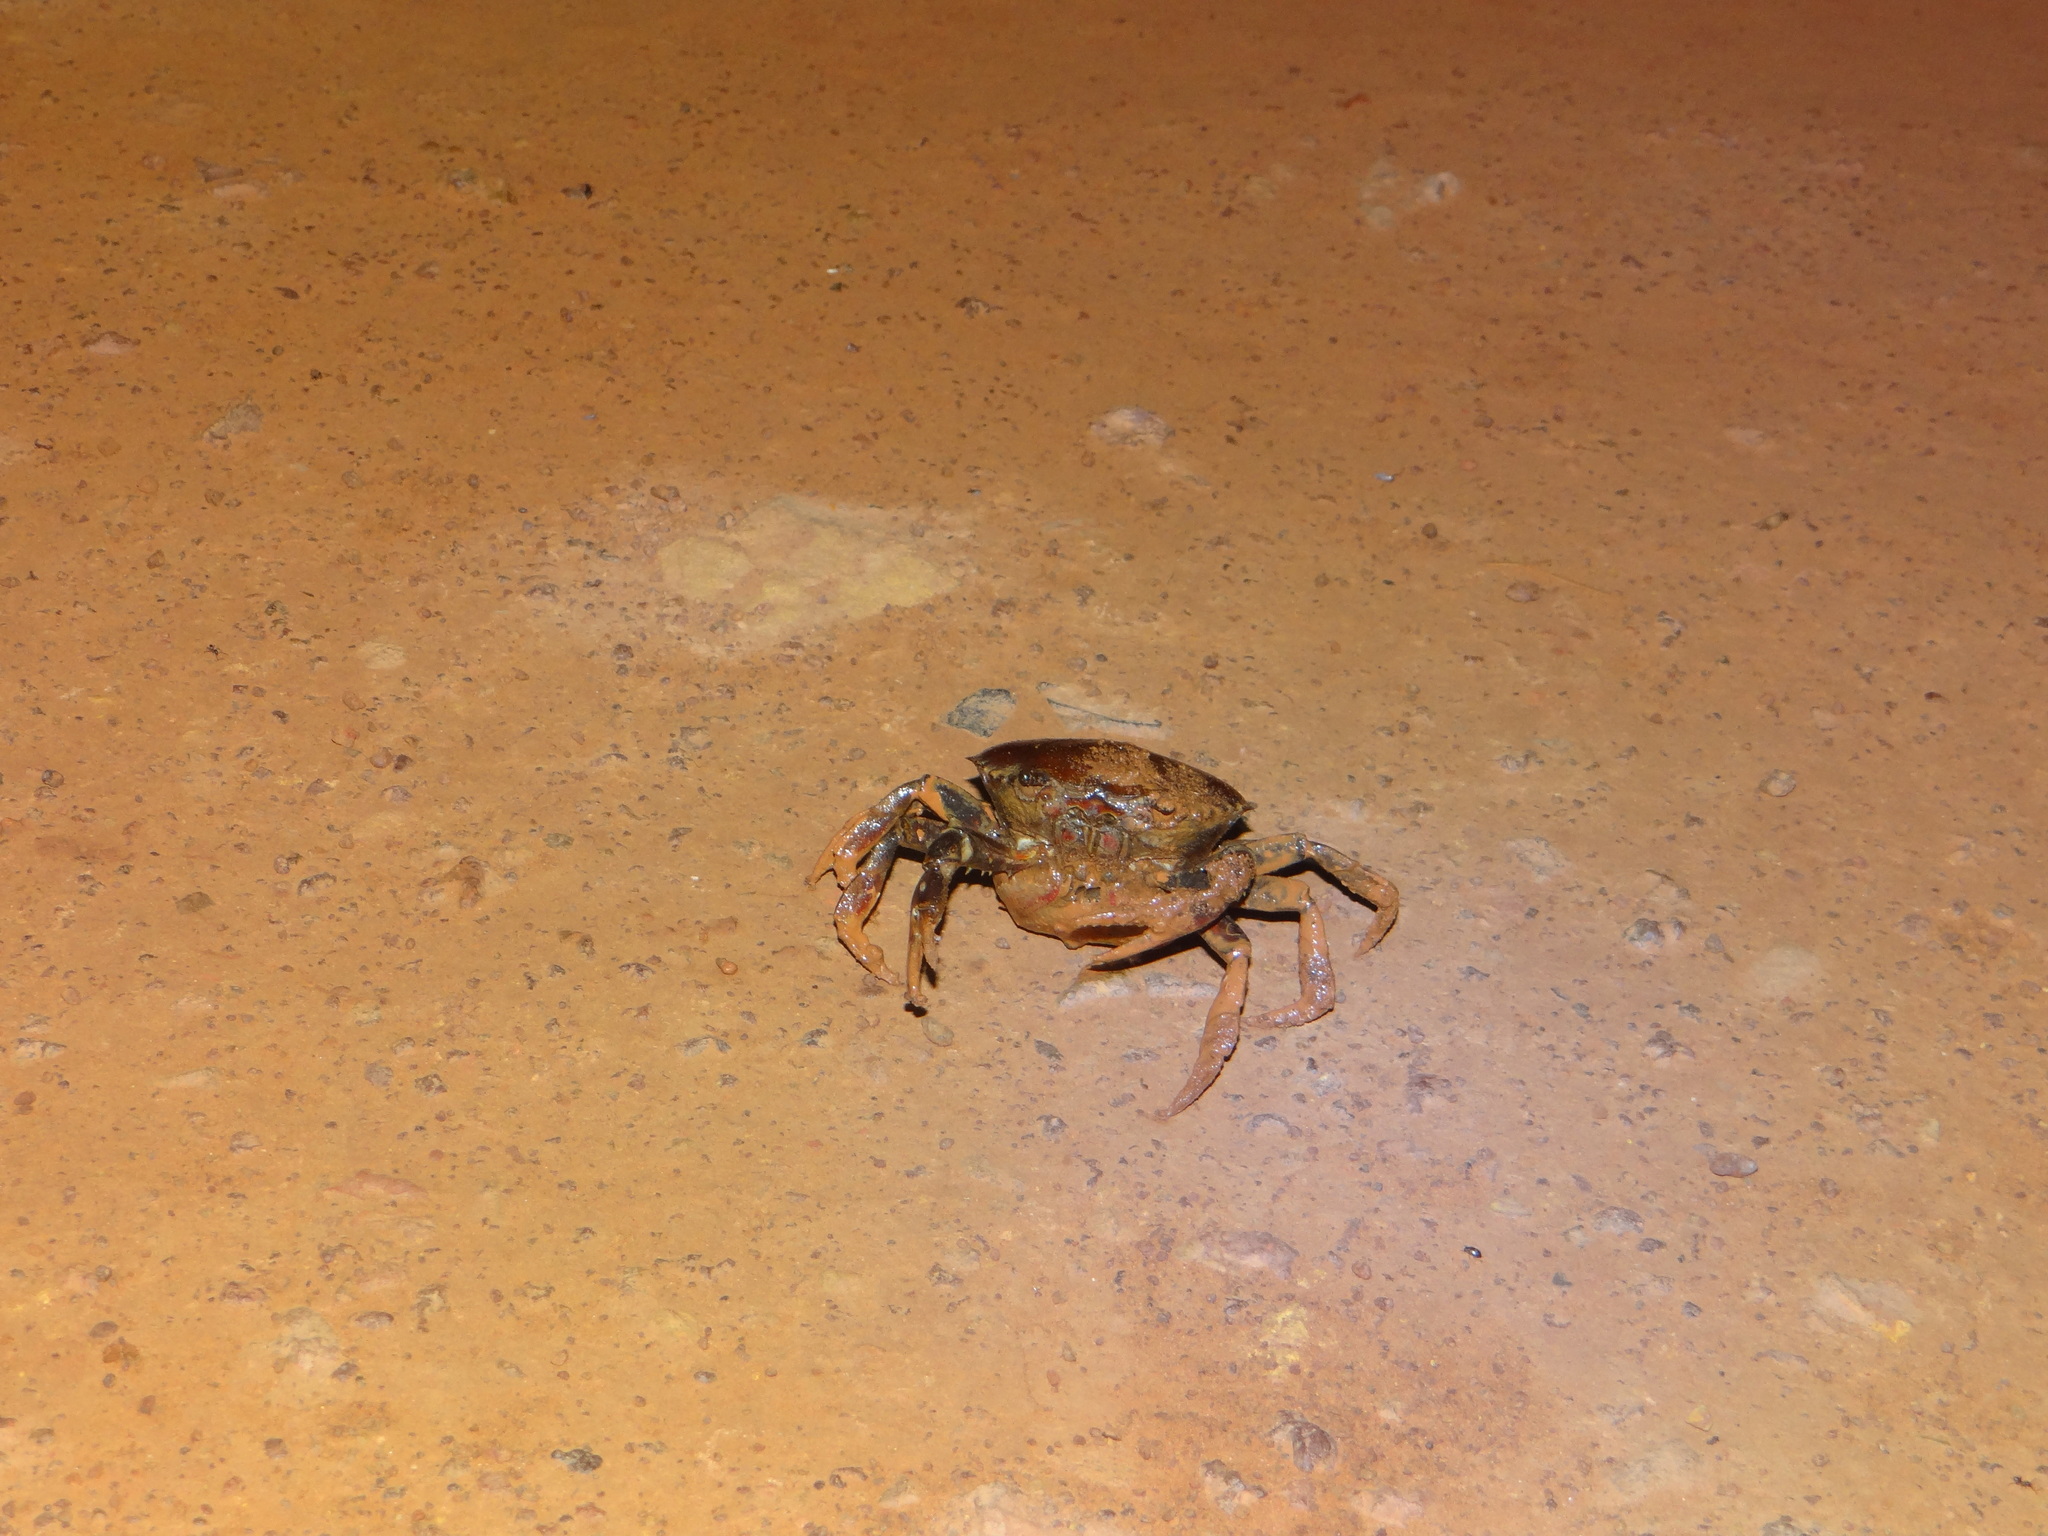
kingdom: Animalia
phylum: Arthropoda
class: Malacostraca
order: Decapoda
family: Trichodactylidae
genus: Dilocarcinus
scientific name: Dilocarcinus pagei
